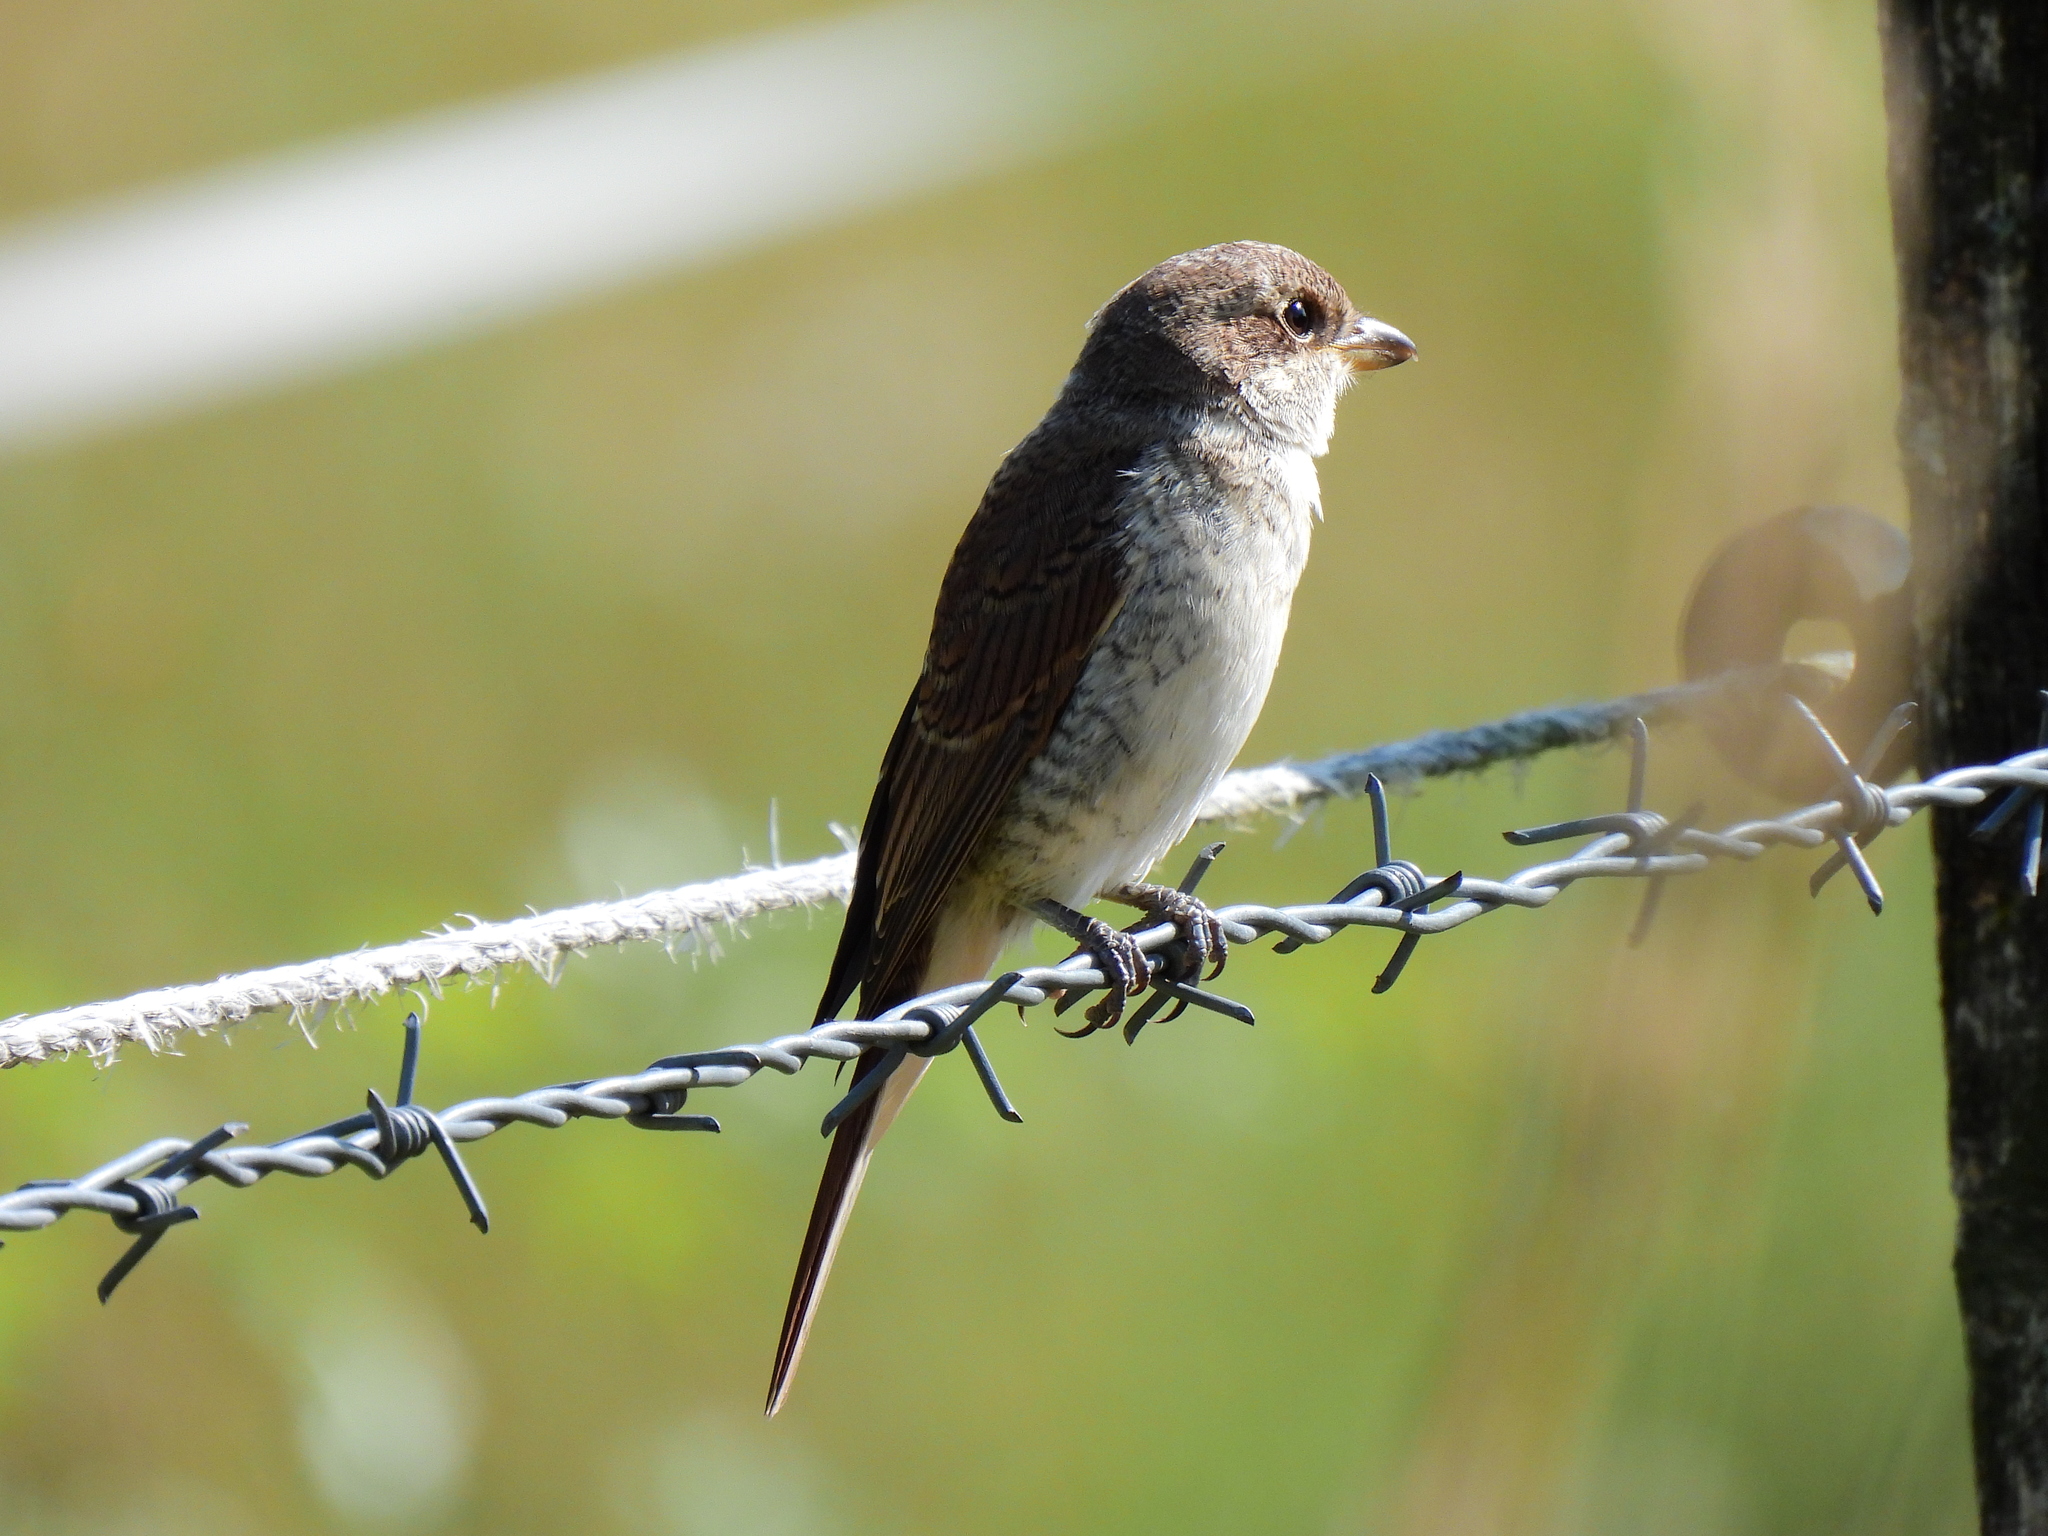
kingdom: Animalia
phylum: Chordata
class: Aves
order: Passeriformes
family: Laniidae
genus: Lanius
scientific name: Lanius collurio
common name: Red-backed shrike
